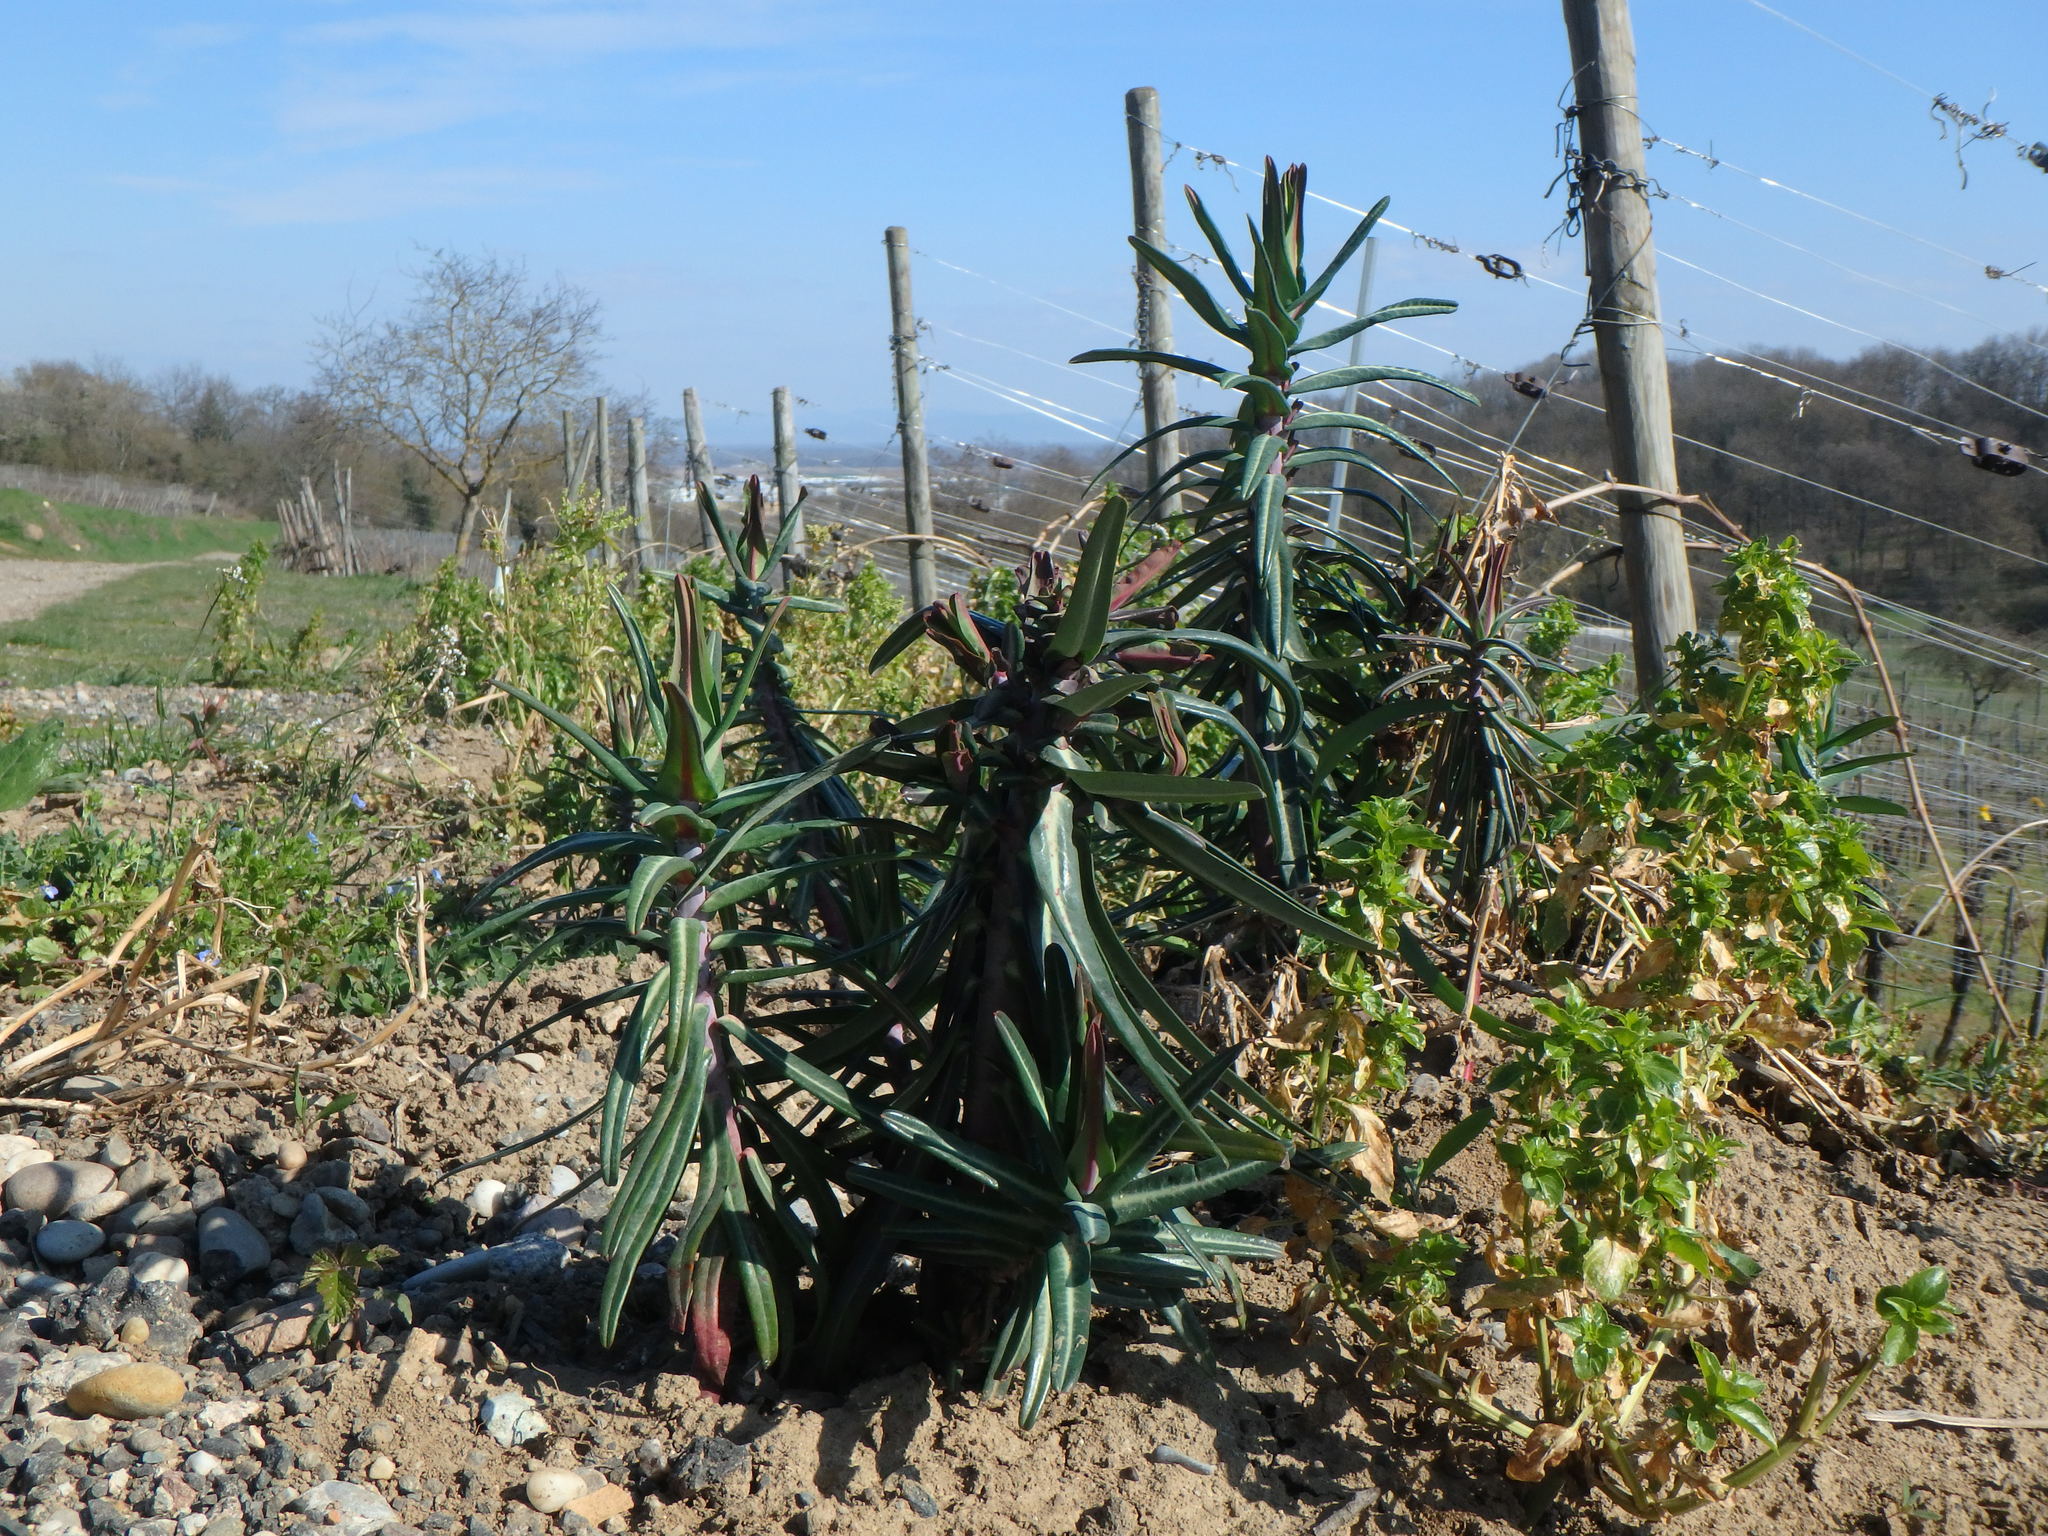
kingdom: Plantae
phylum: Tracheophyta
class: Magnoliopsida
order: Malpighiales
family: Euphorbiaceae
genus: Euphorbia
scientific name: Euphorbia lathyris
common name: Caper spurge
